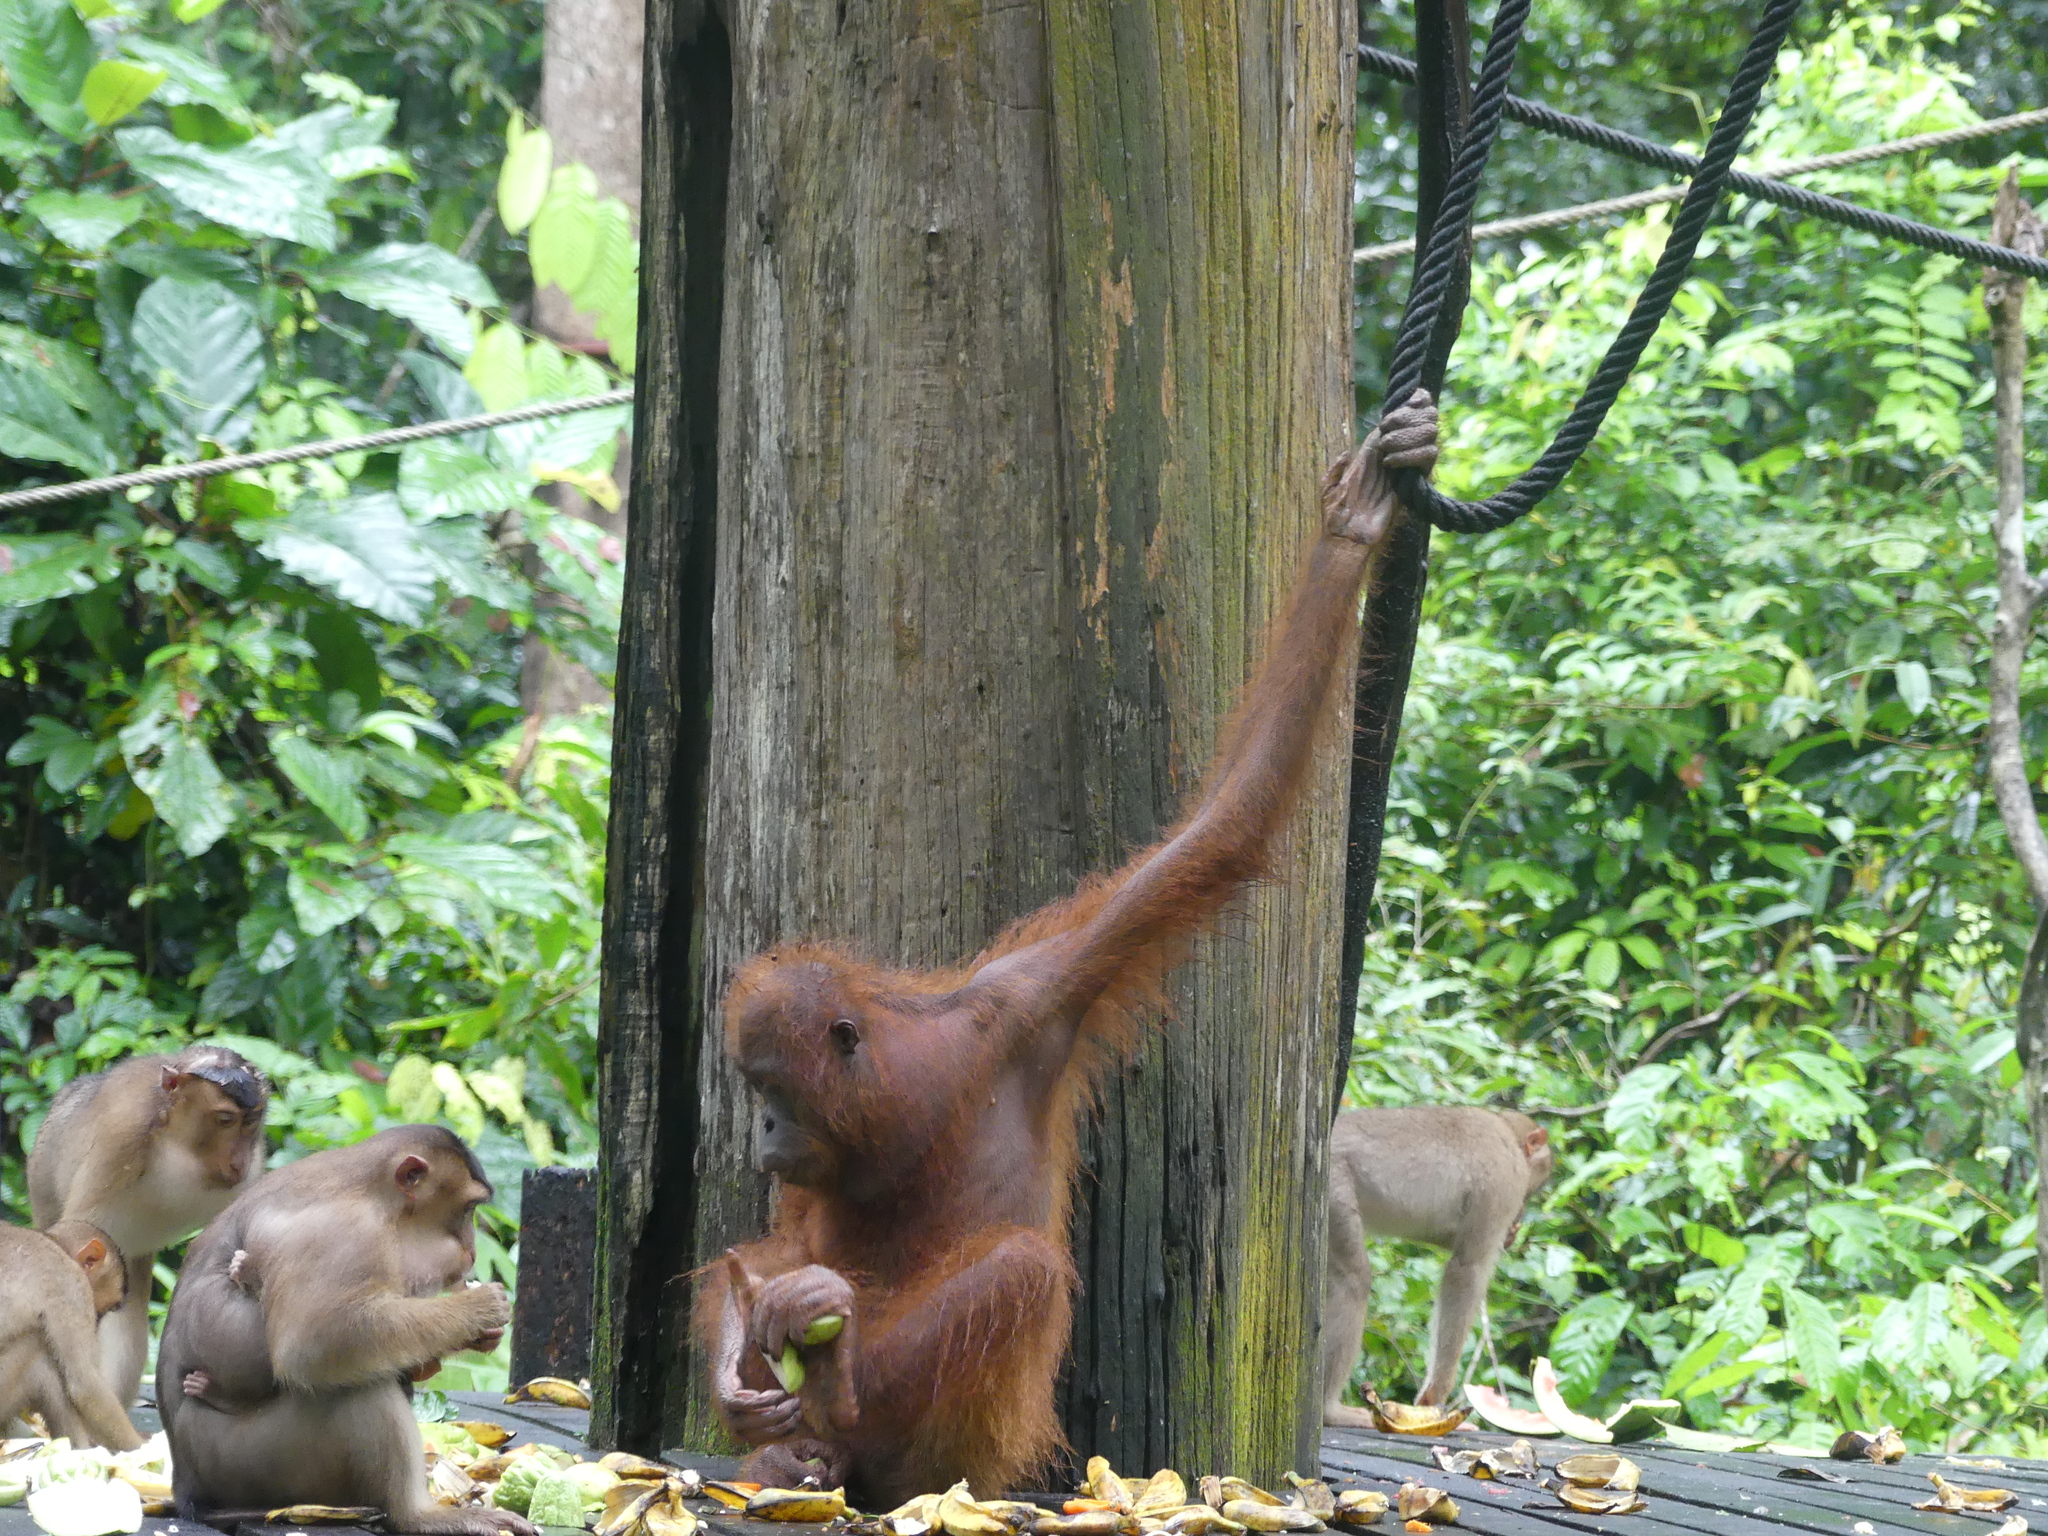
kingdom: Animalia
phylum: Chordata
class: Mammalia
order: Primates
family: Hominidae
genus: Pongo
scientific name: Pongo pygmaeus
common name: Bornean orangutan
